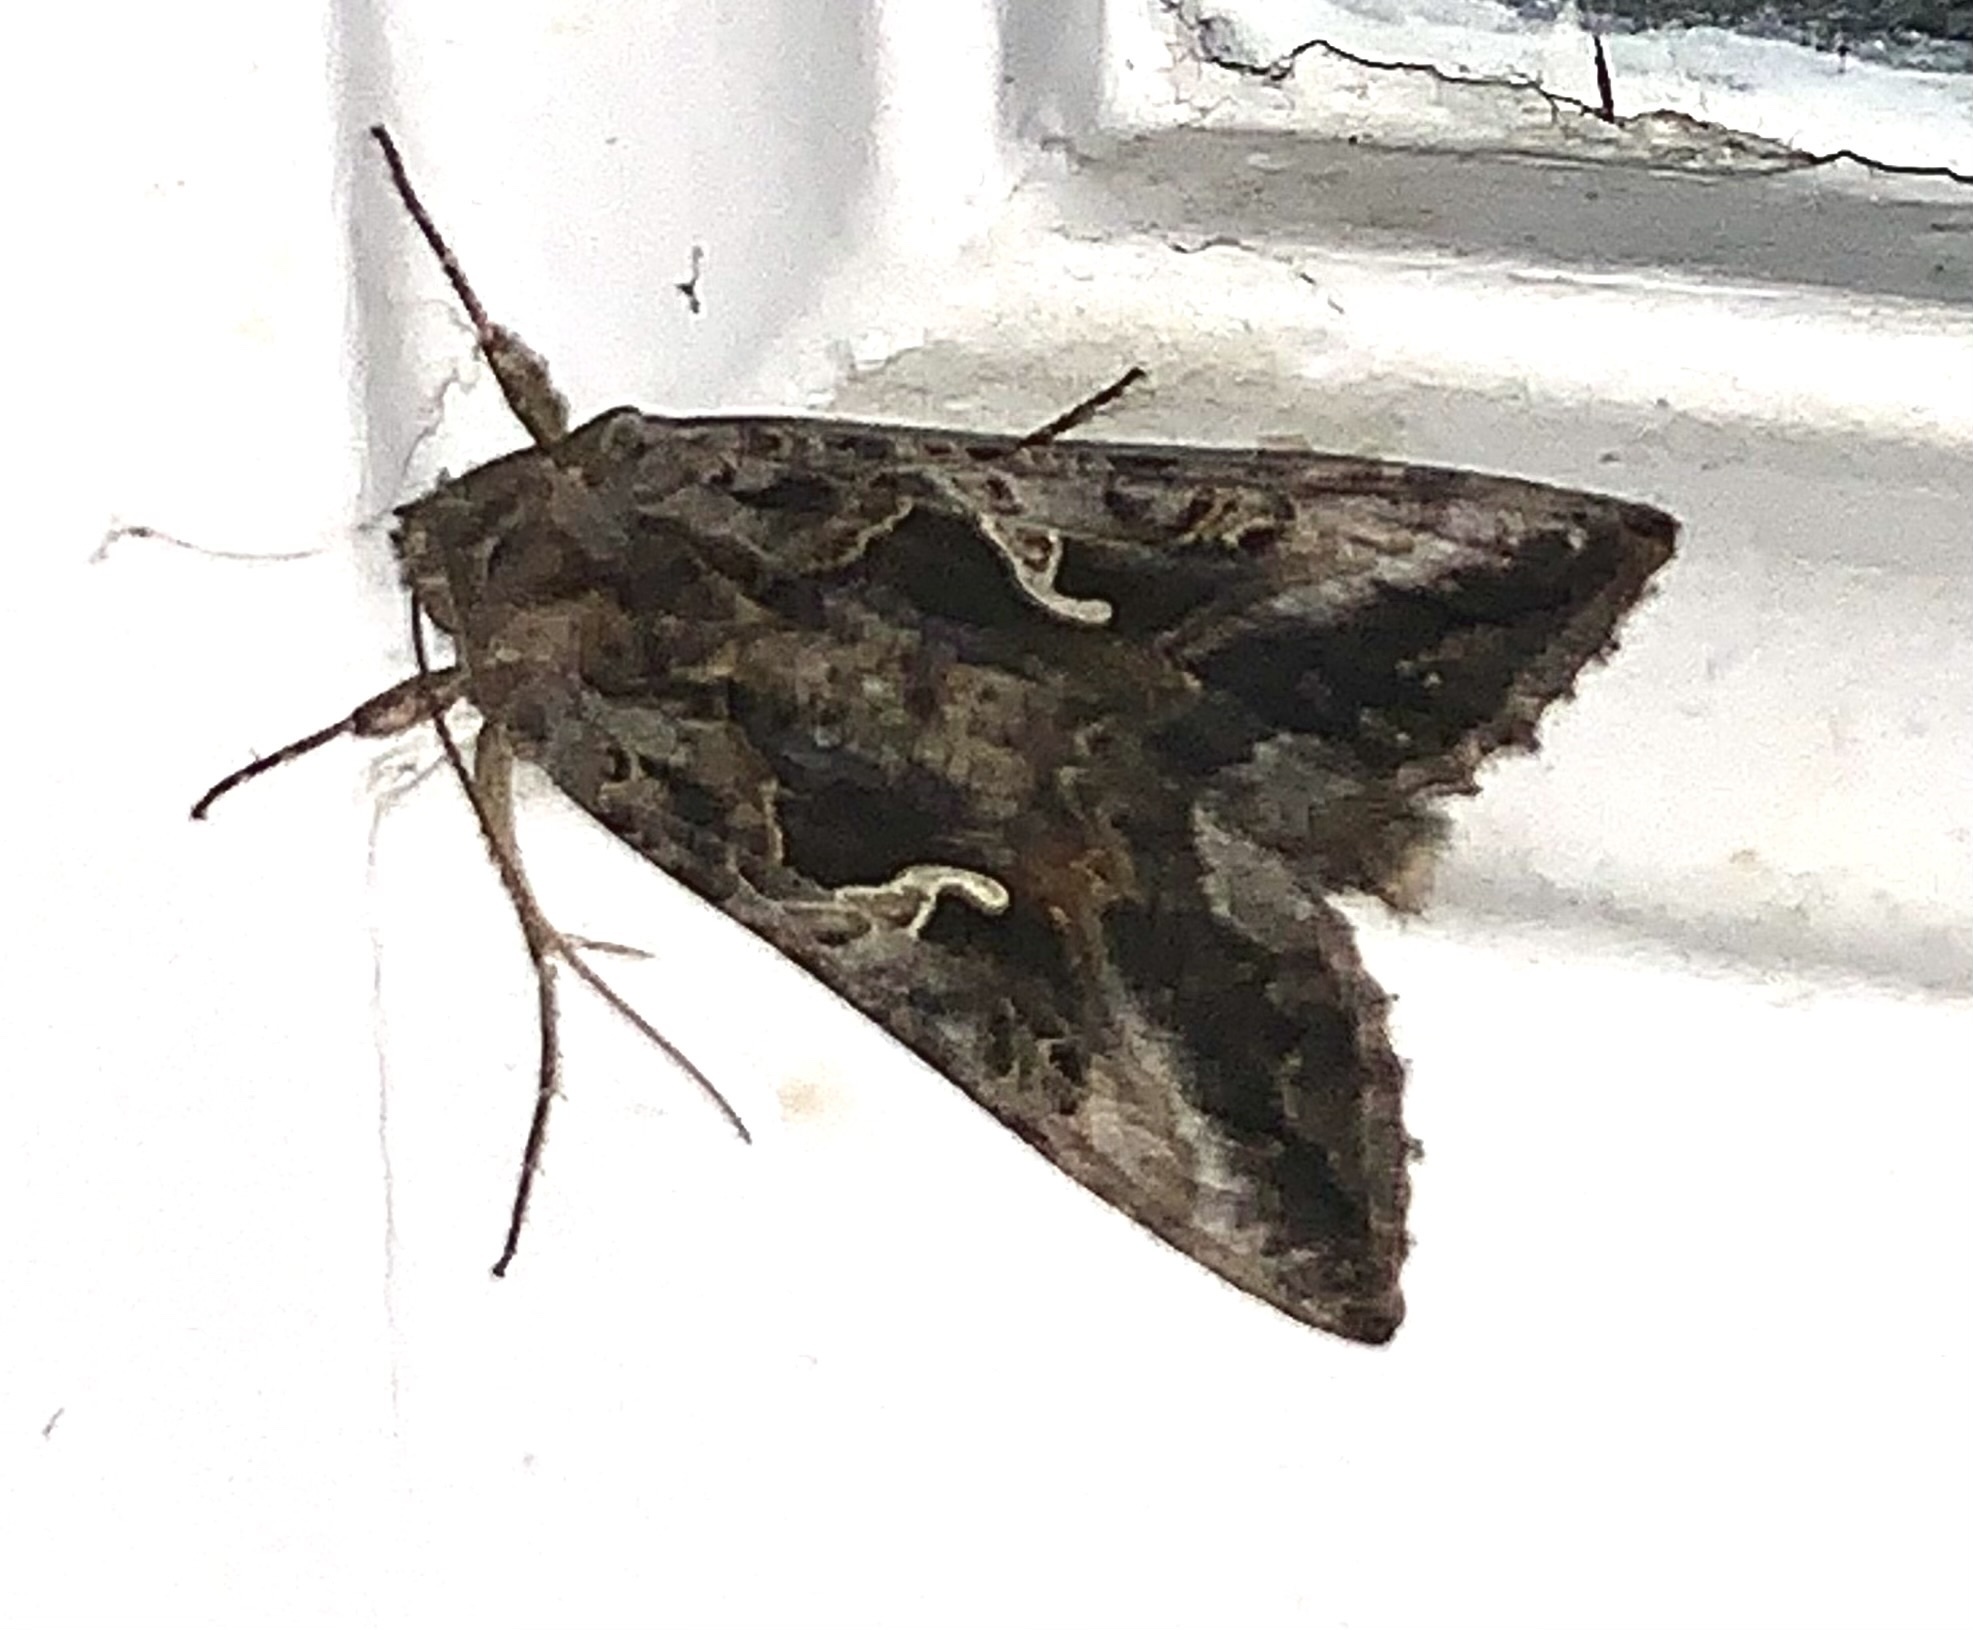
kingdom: Animalia
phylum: Arthropoda
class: Insecta
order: Lepidoptera
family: Noctuidae
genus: Autographa
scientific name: Autographa gamma
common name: Silver y
